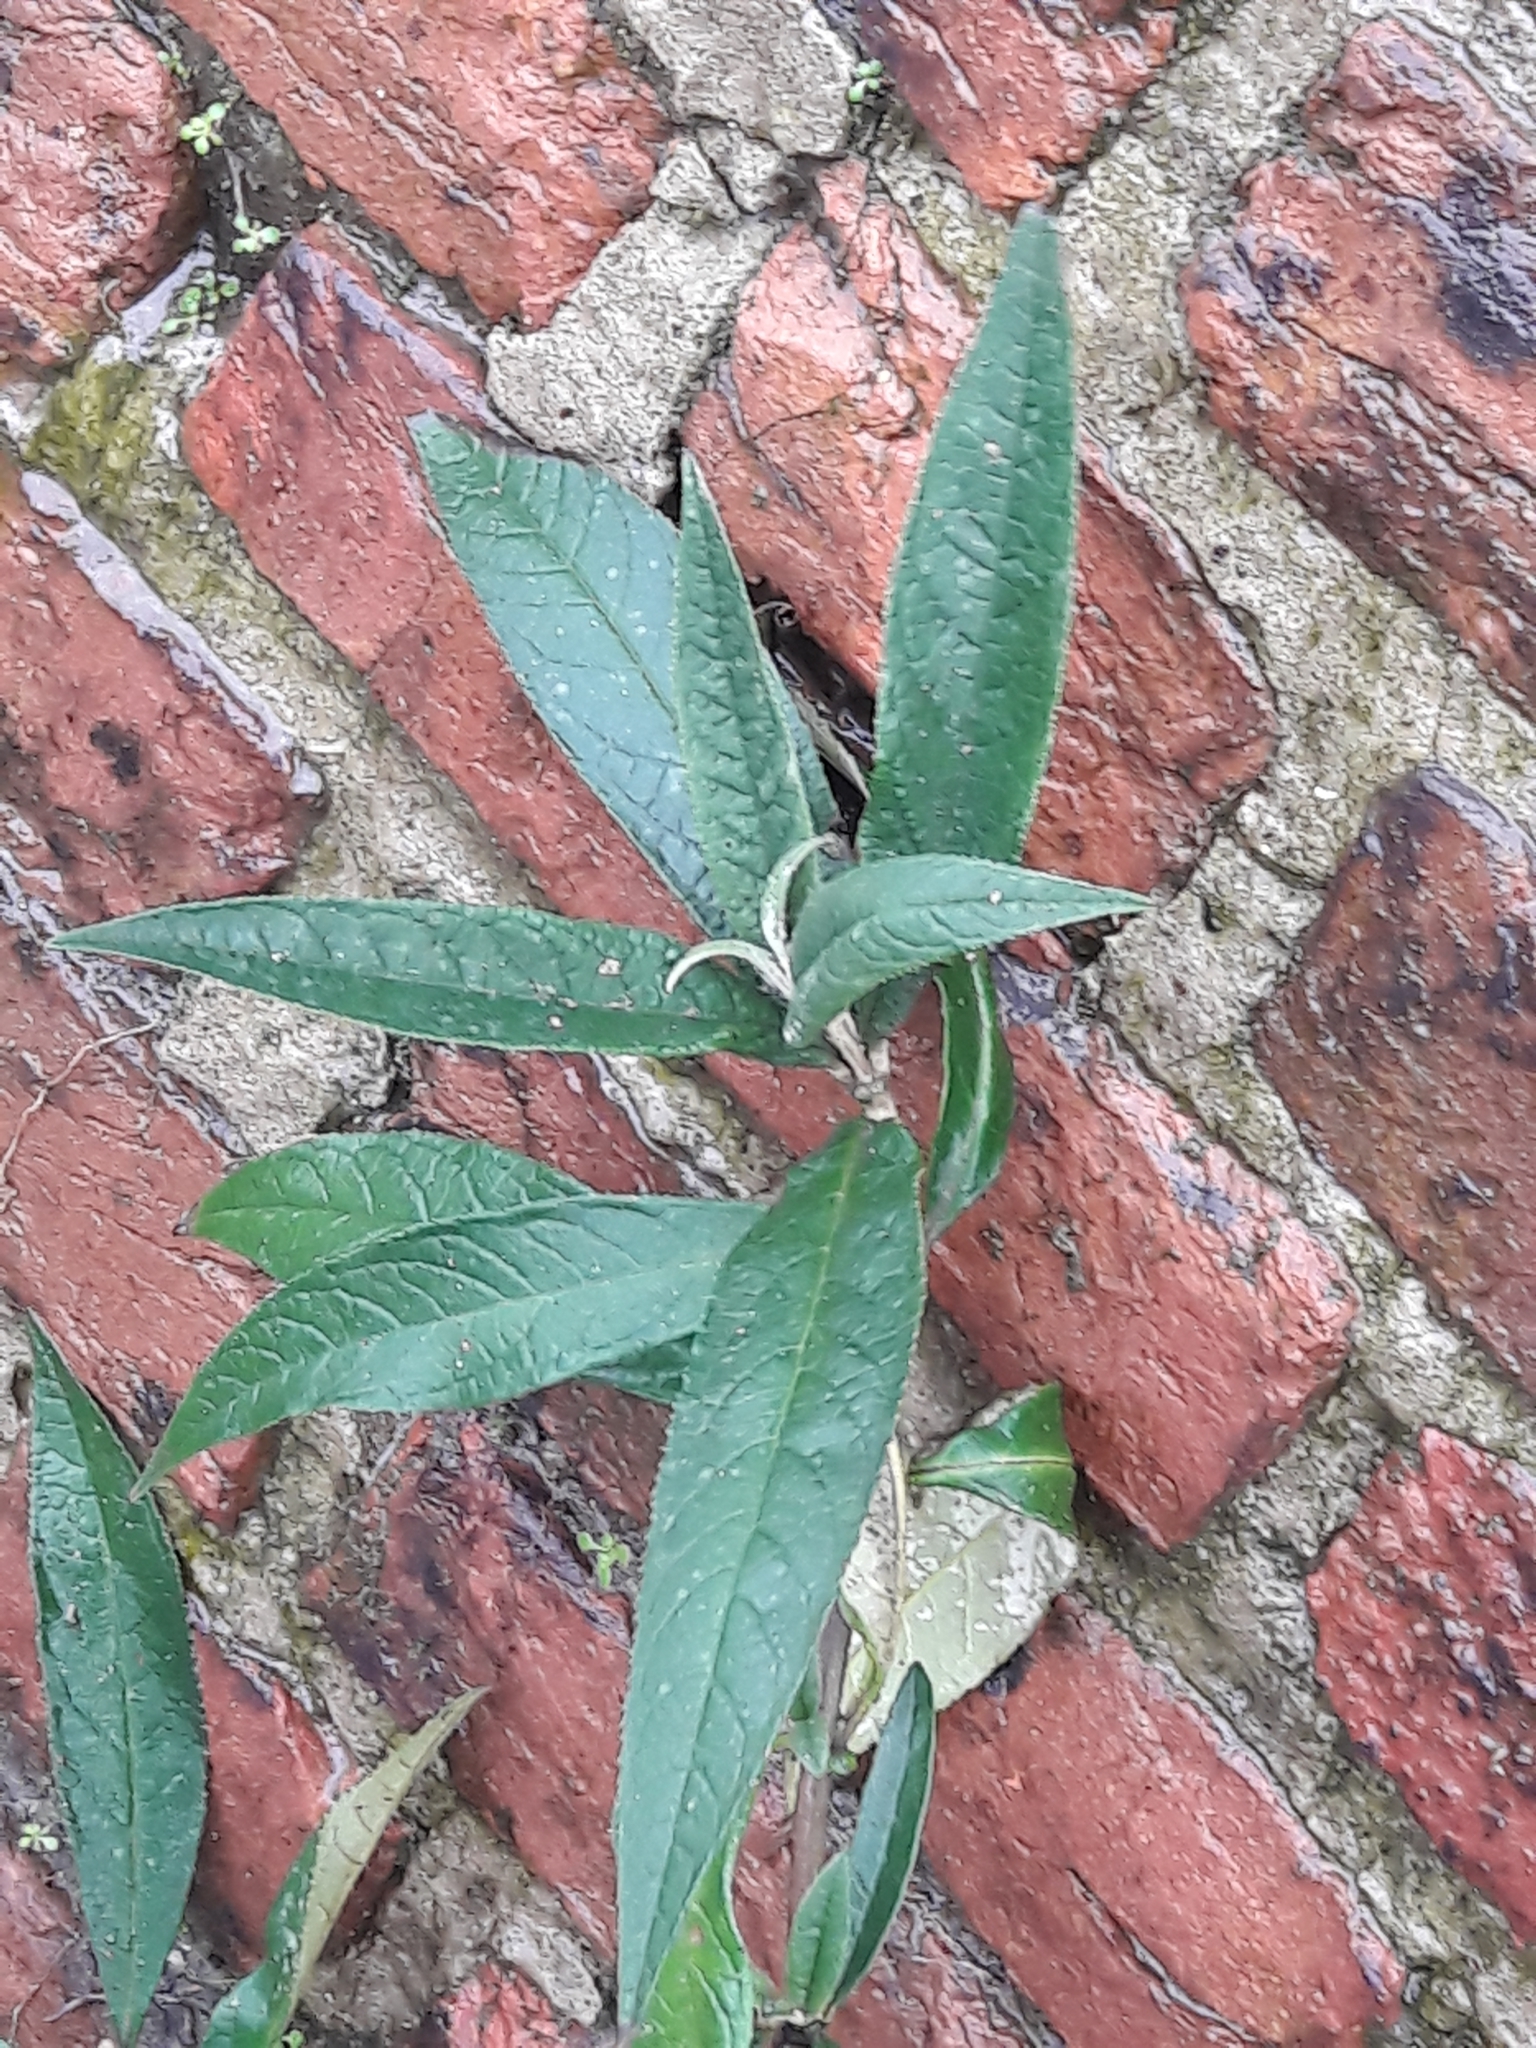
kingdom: Plantae
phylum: Tracheophyta
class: Magnoliopsida
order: Lamiales
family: Scrophulariaceae
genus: Buddleja
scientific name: Buddleja davidii
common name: Butterfly-bush
